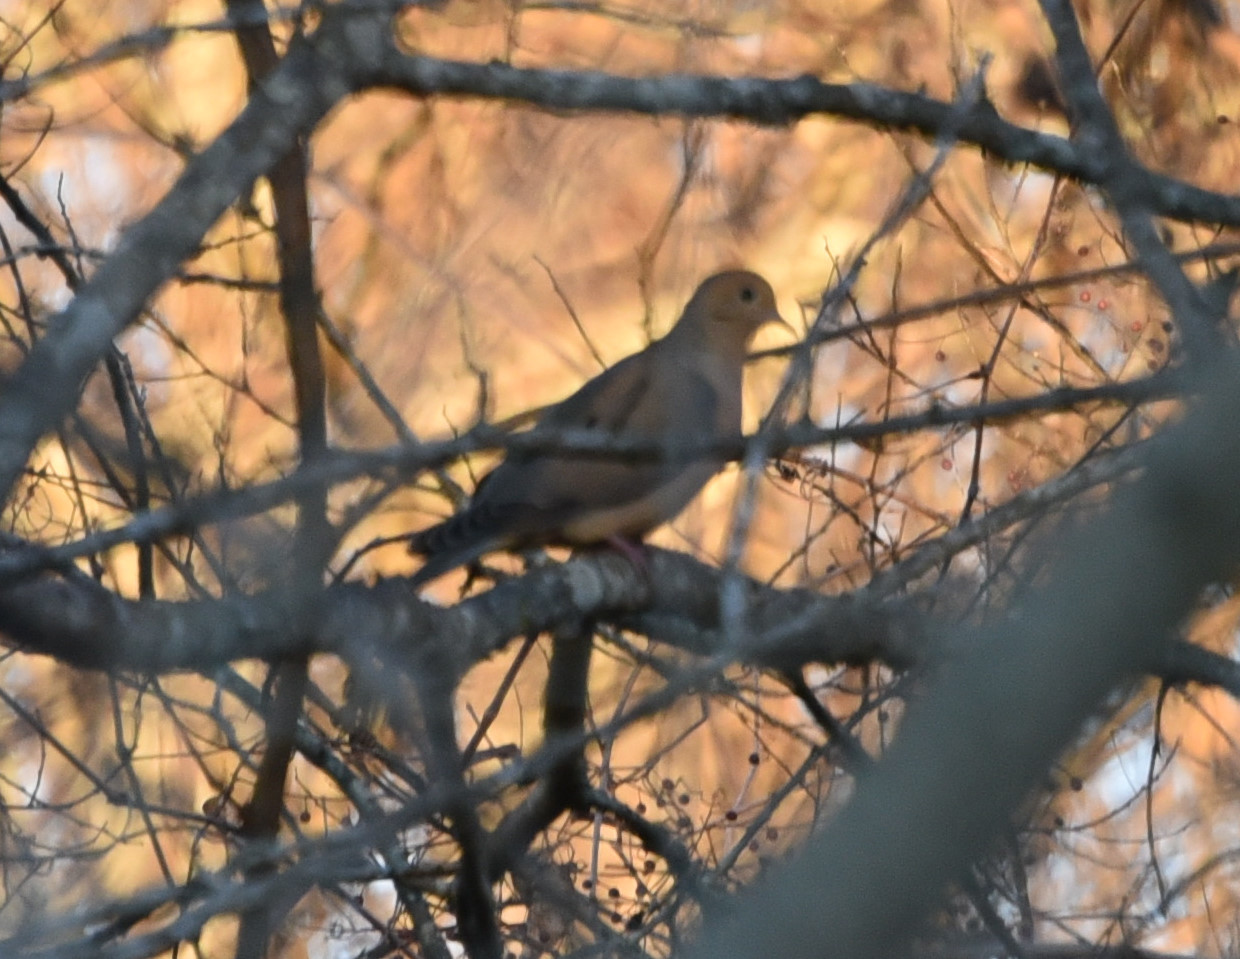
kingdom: Animalia
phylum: Chordata
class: Aves
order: Columbiformes
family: Columbidae
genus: Zenaida
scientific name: Zenaida macroura
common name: Mourning dove
